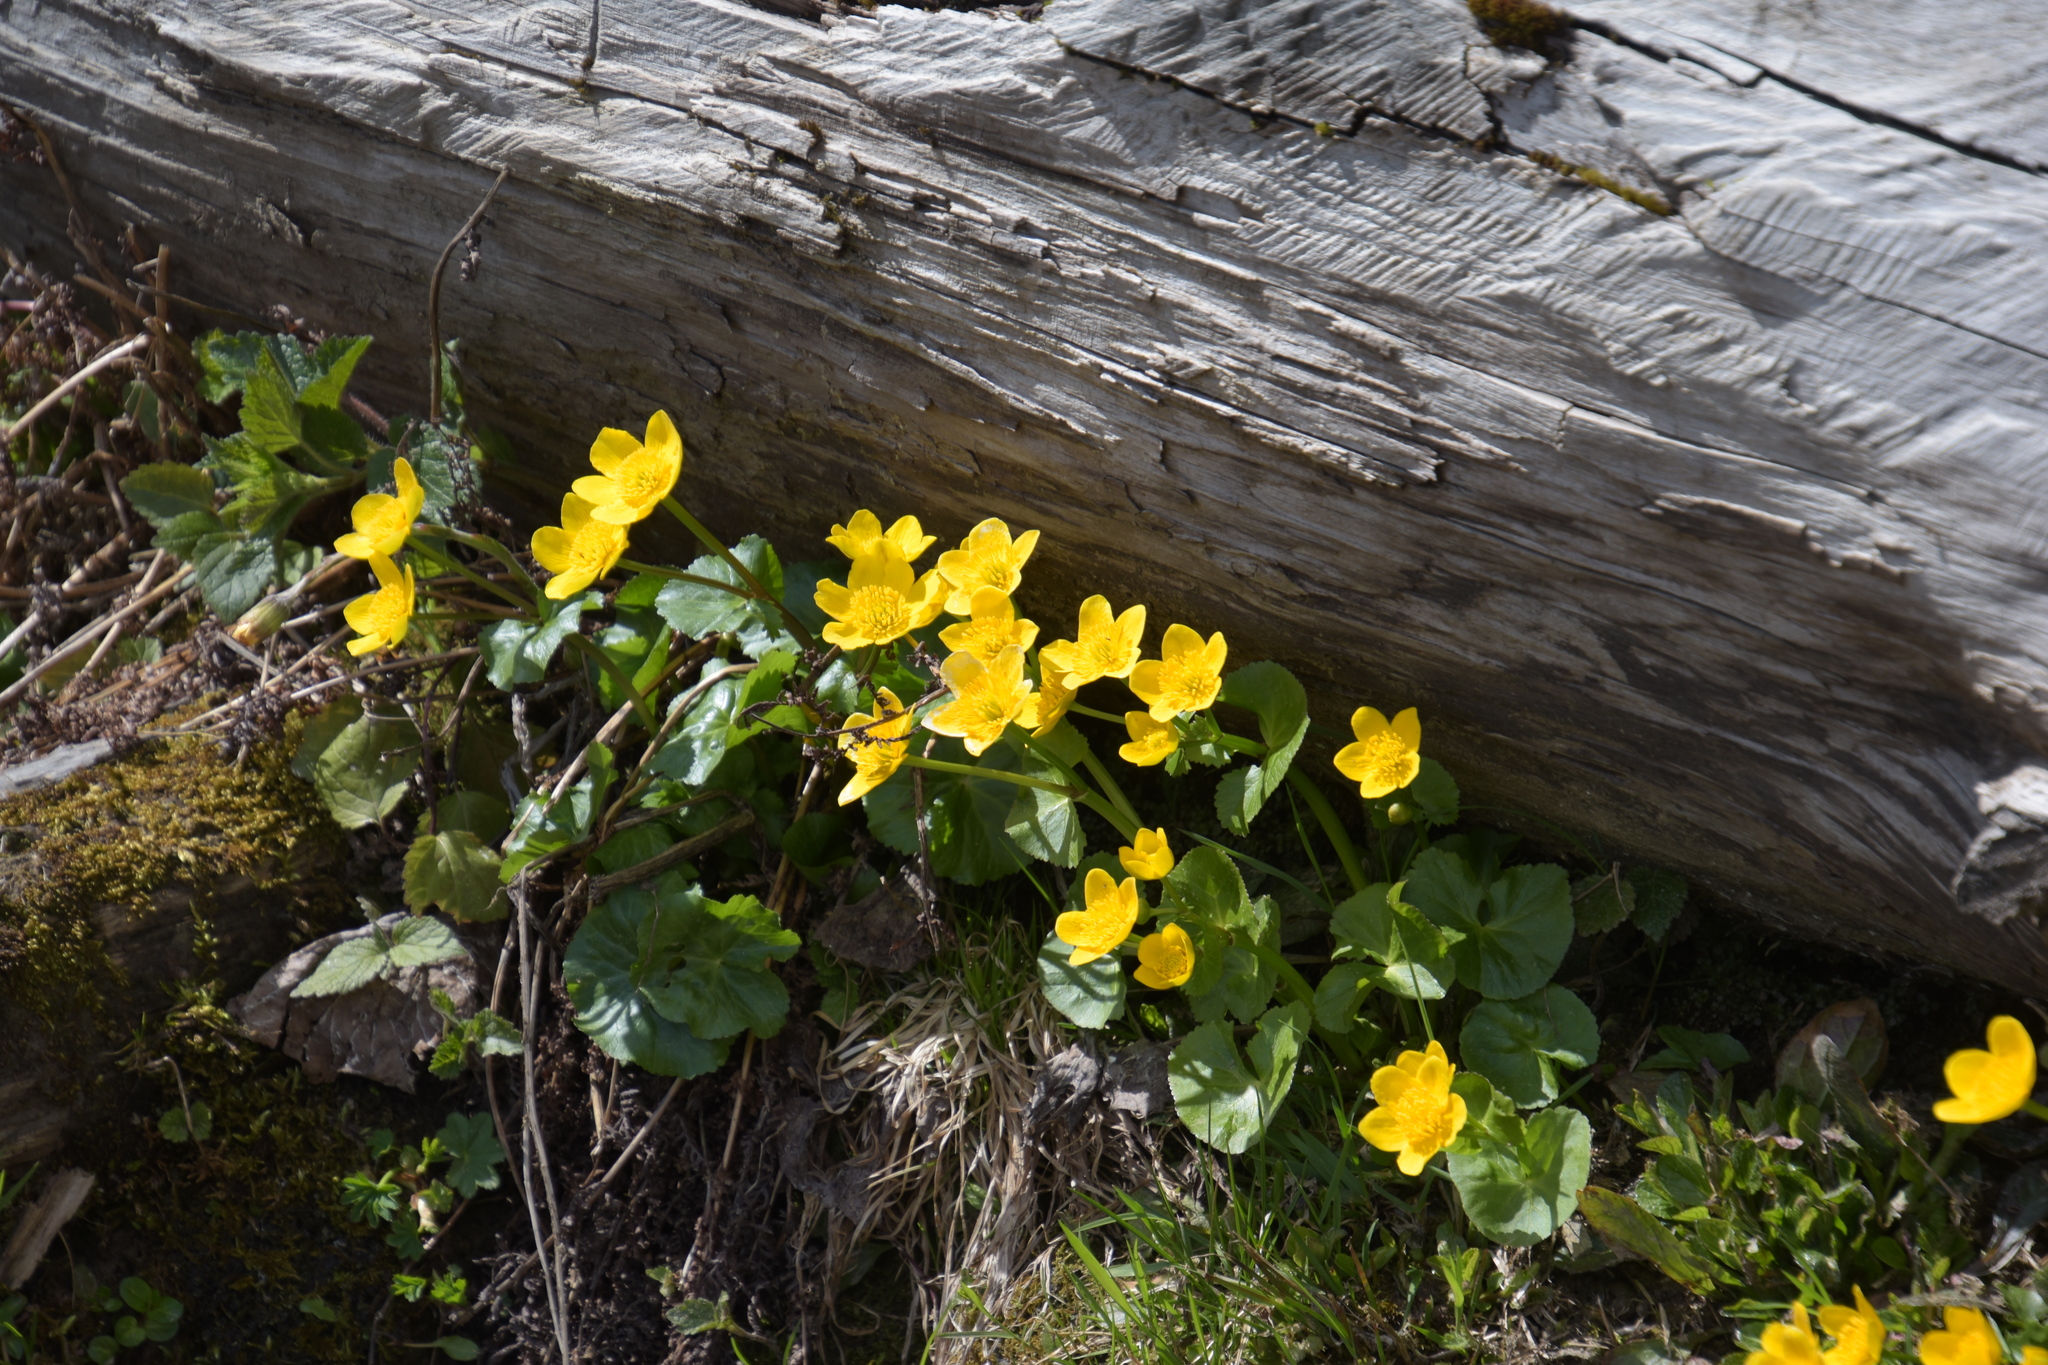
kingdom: Plantae
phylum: Tracheophyta
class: Magnoliopsida
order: Ranunculales
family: Ranunculaceae
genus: Caltha
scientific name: Caltha palustris
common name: Marsh marigold
